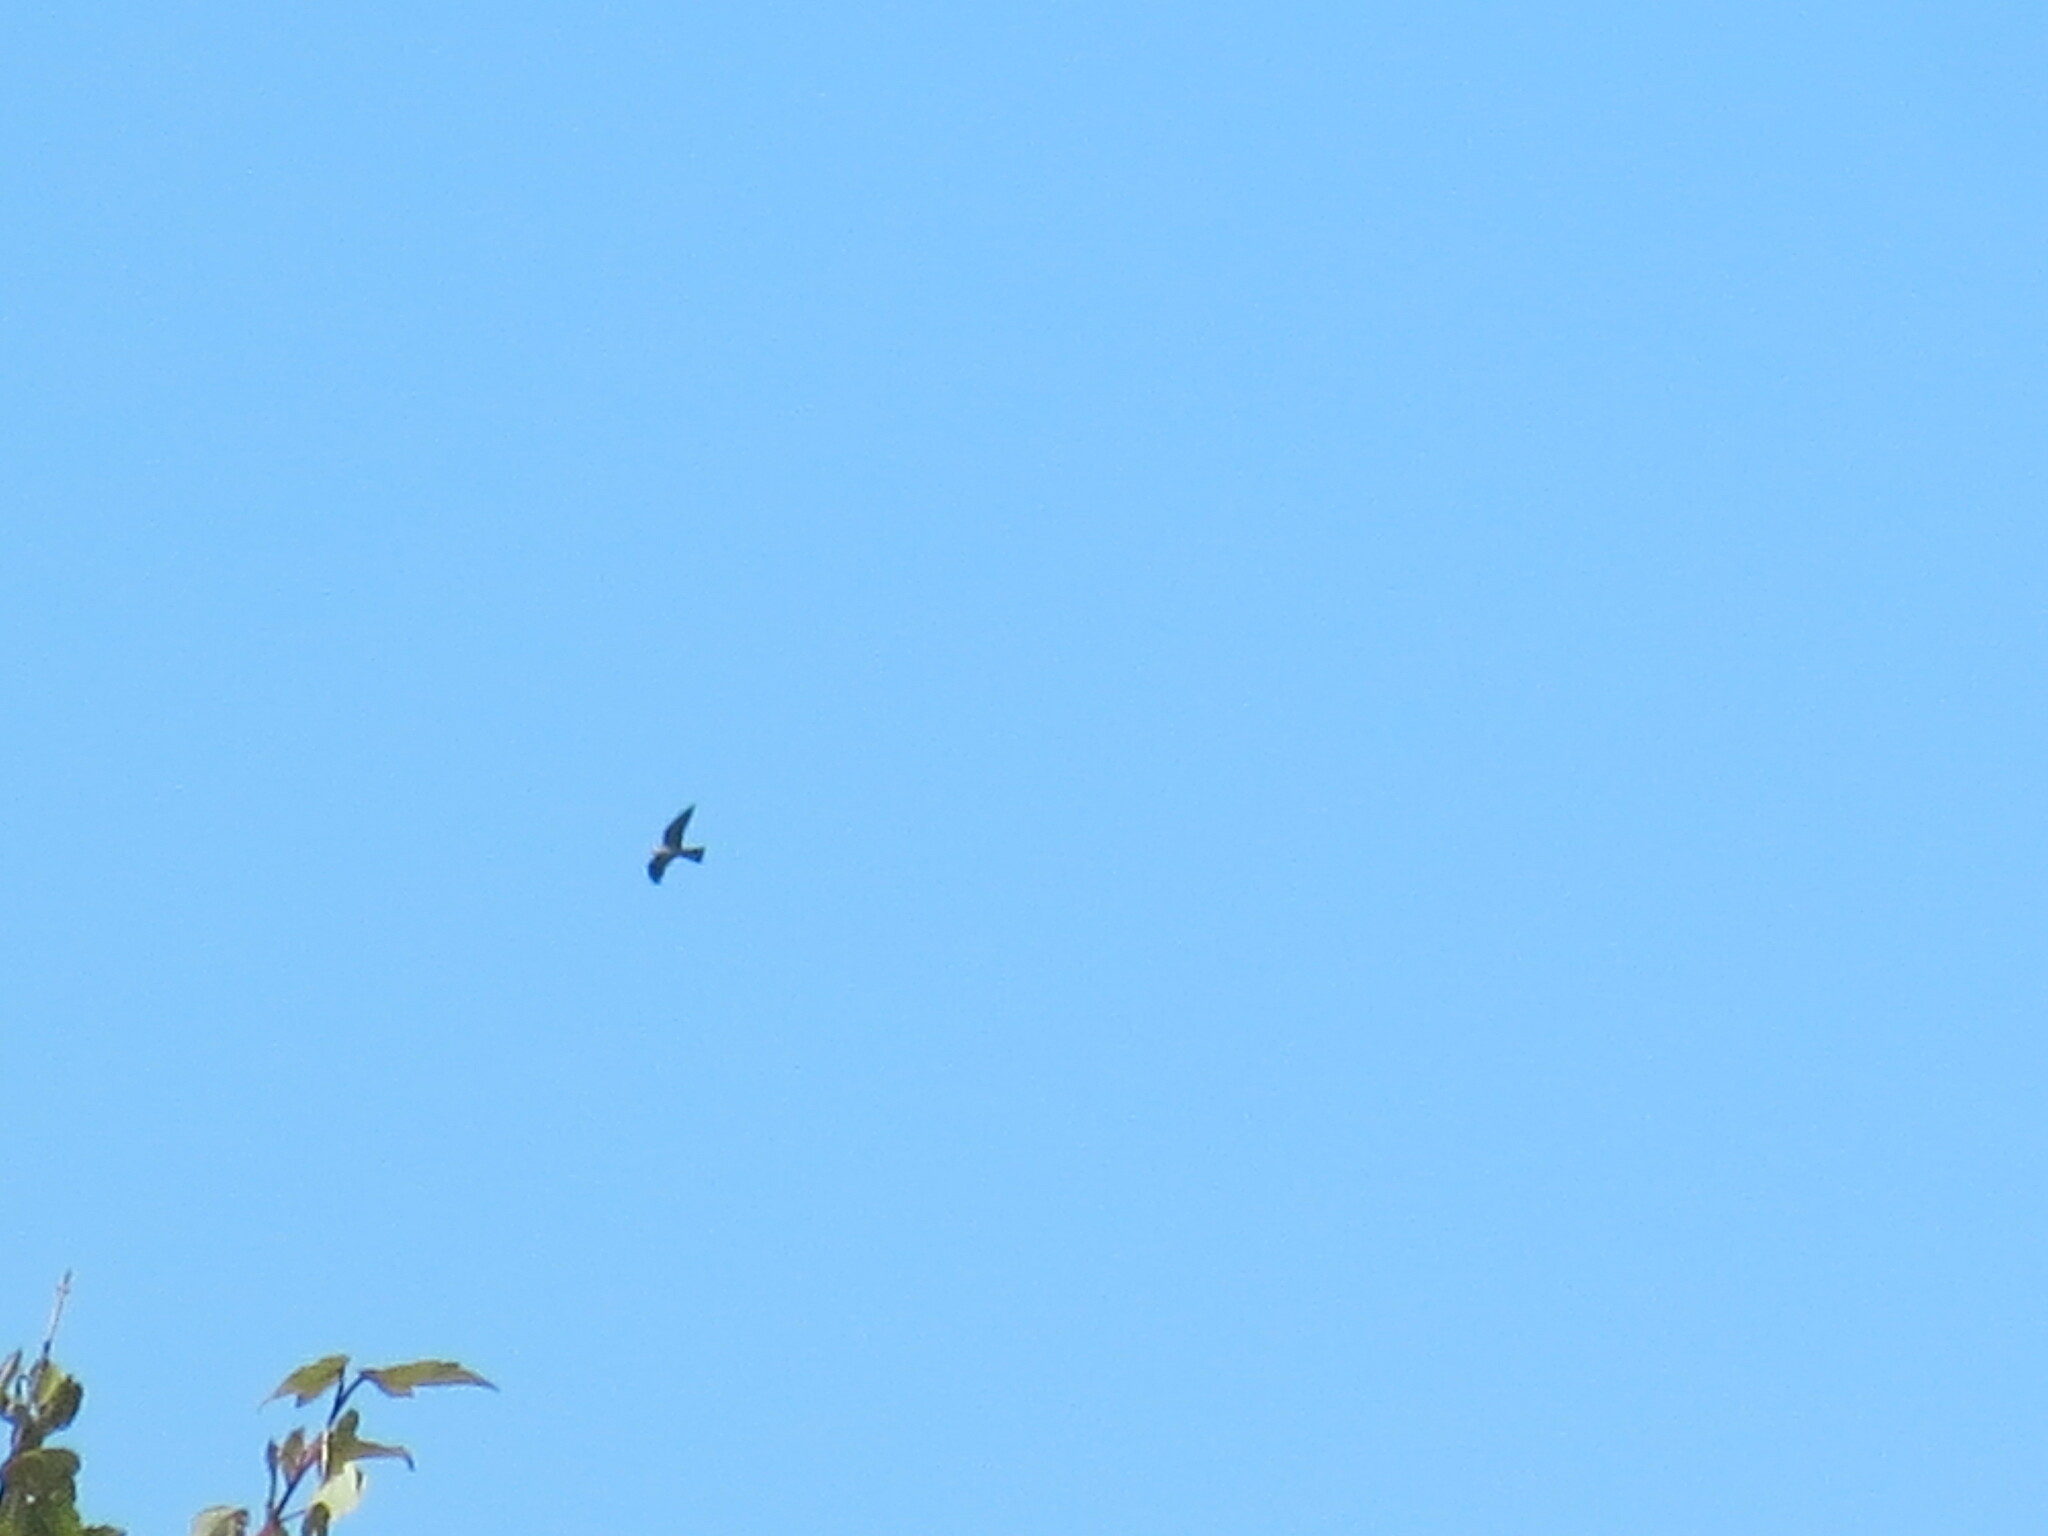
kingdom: Animalia
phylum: Chordata
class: Aves
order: Accipitriformes
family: Accipitridae
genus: Ictinia
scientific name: Ictinia mississippiensis
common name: Mississippi kite
